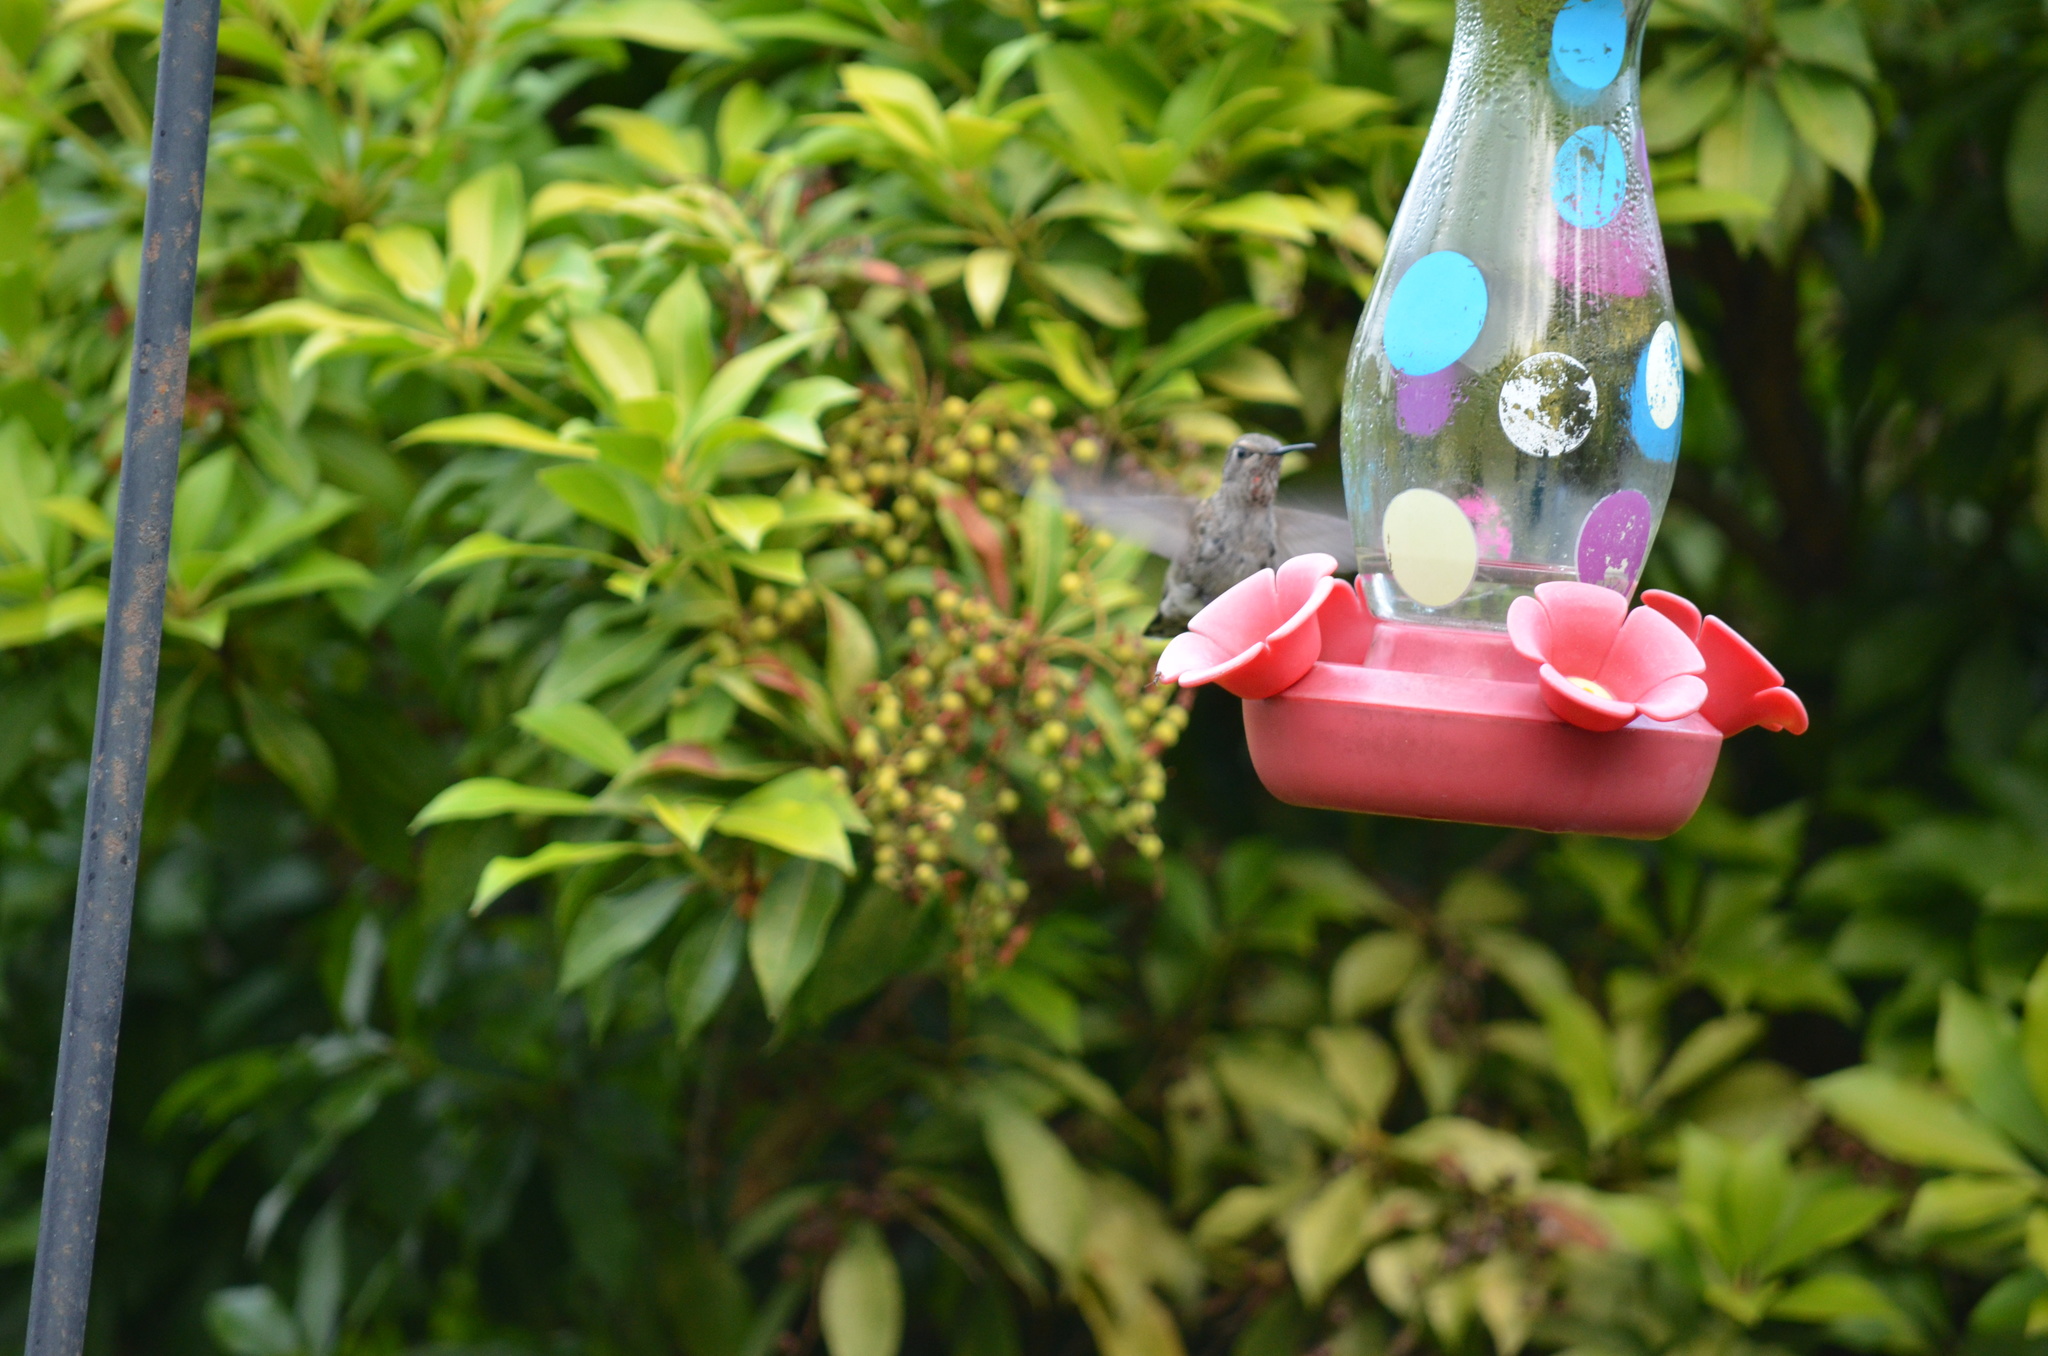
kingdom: Animalia
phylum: Chordata
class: Aves
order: Apodiformes
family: Trochilidae
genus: Calypte
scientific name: Calypte anna
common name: Anna's hummingbird
